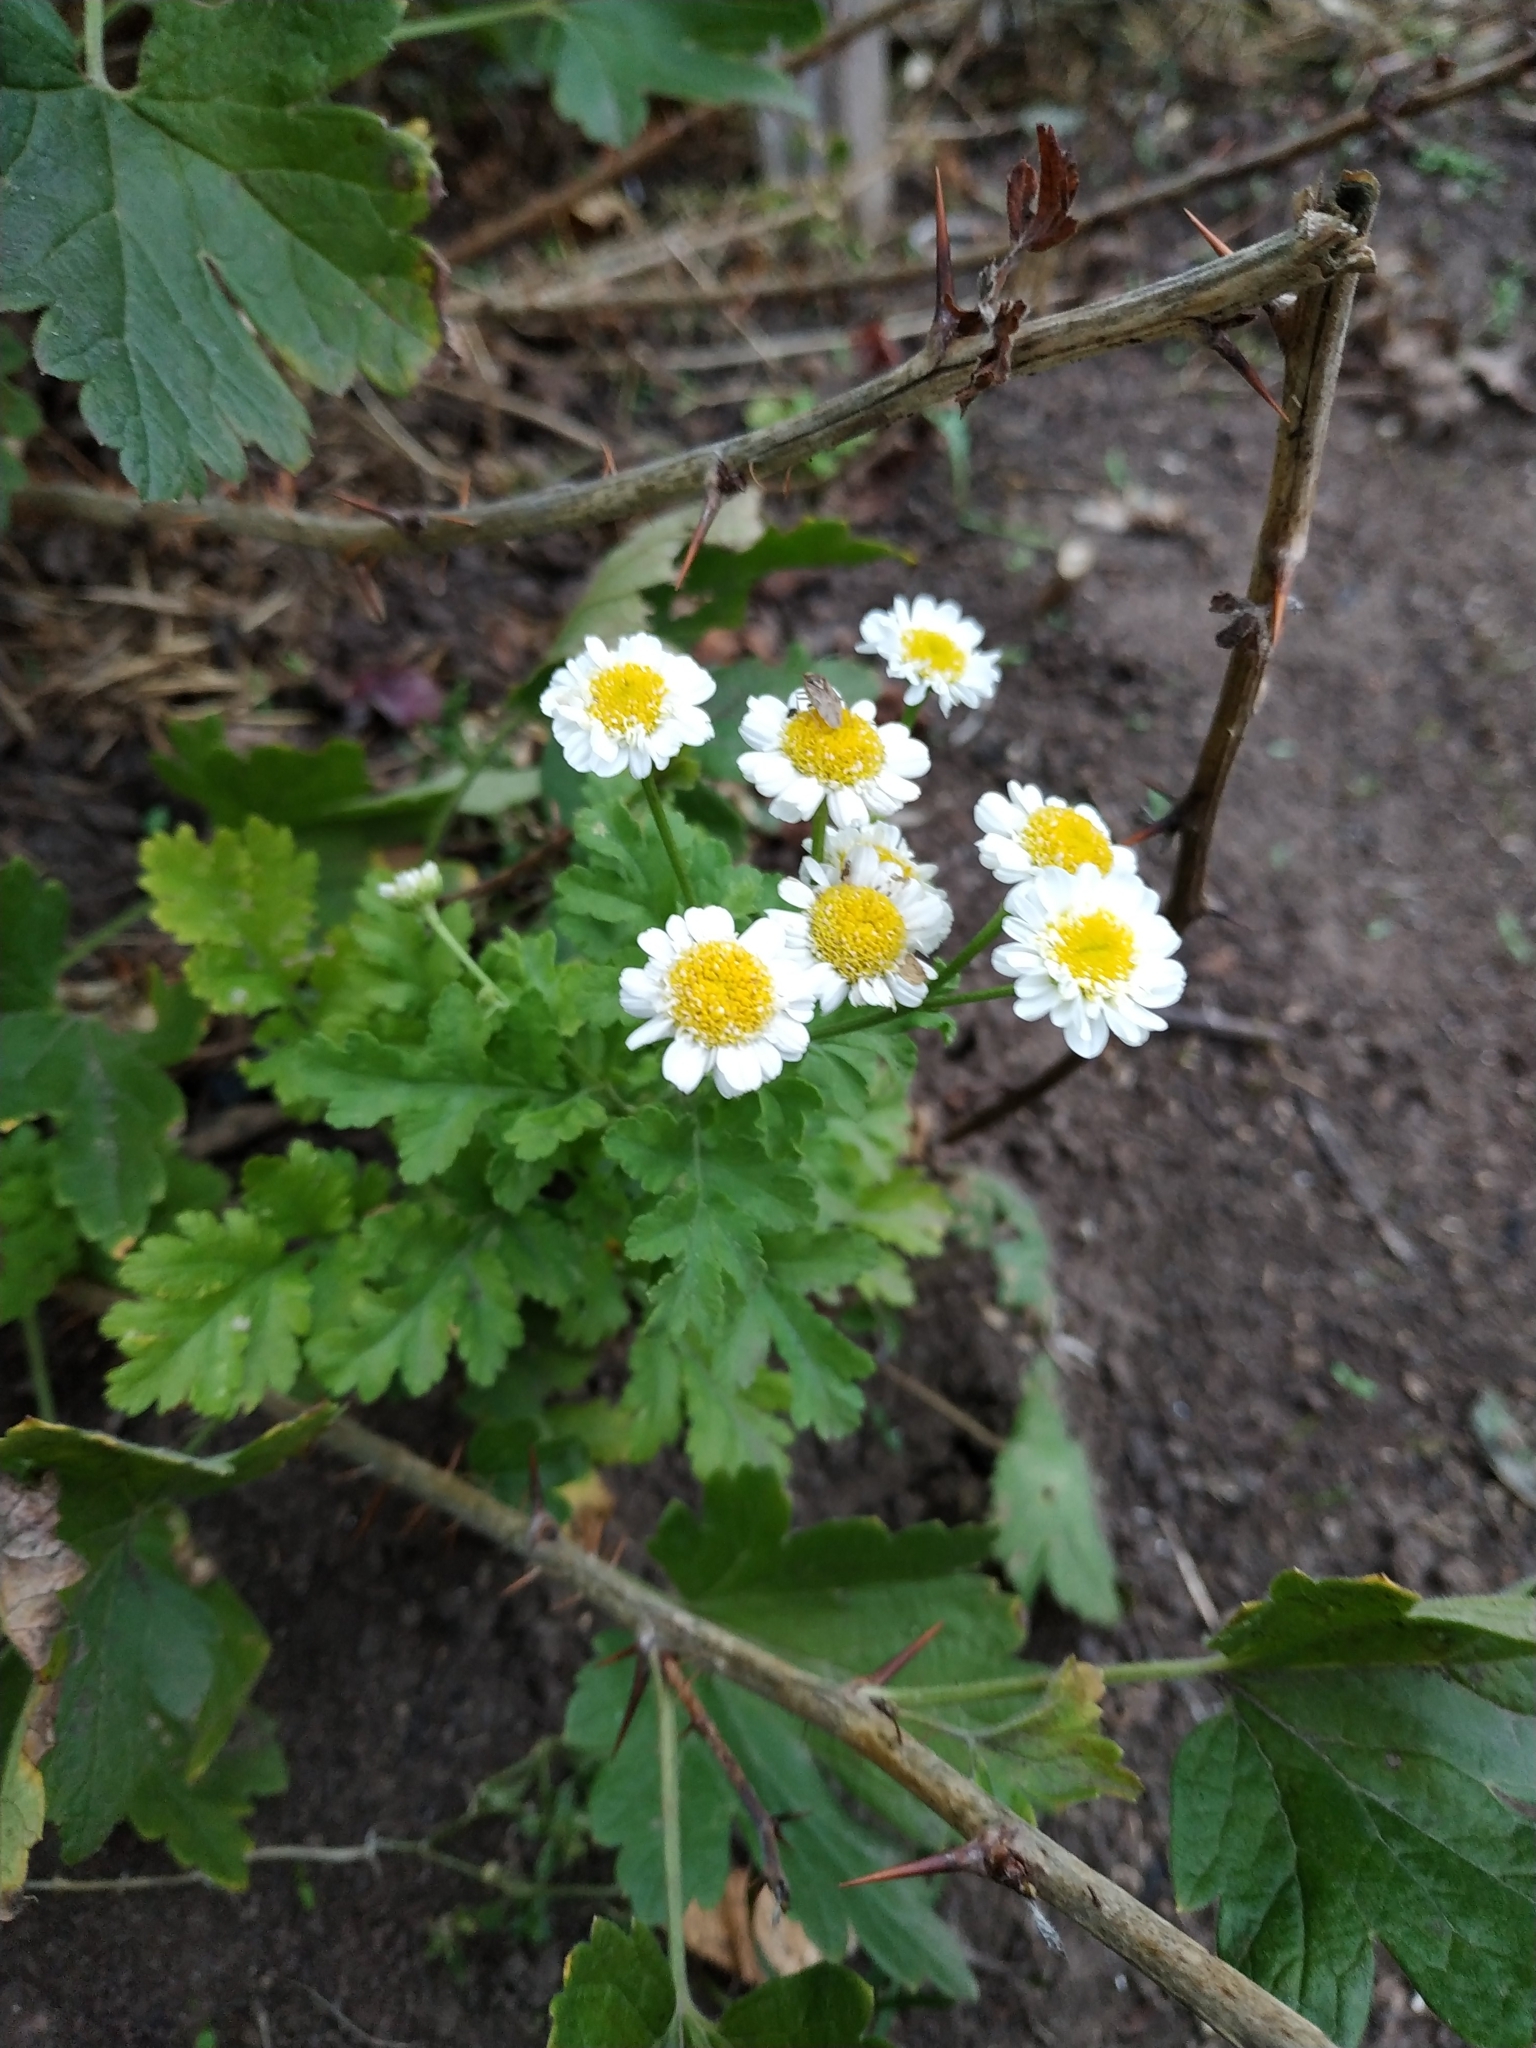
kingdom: Plantae
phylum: Tracheophyta
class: Magnoliopsida
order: Asterales
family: Asteraceae
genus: Tanacetum
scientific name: Tanacetum parthenium
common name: Feverfew
